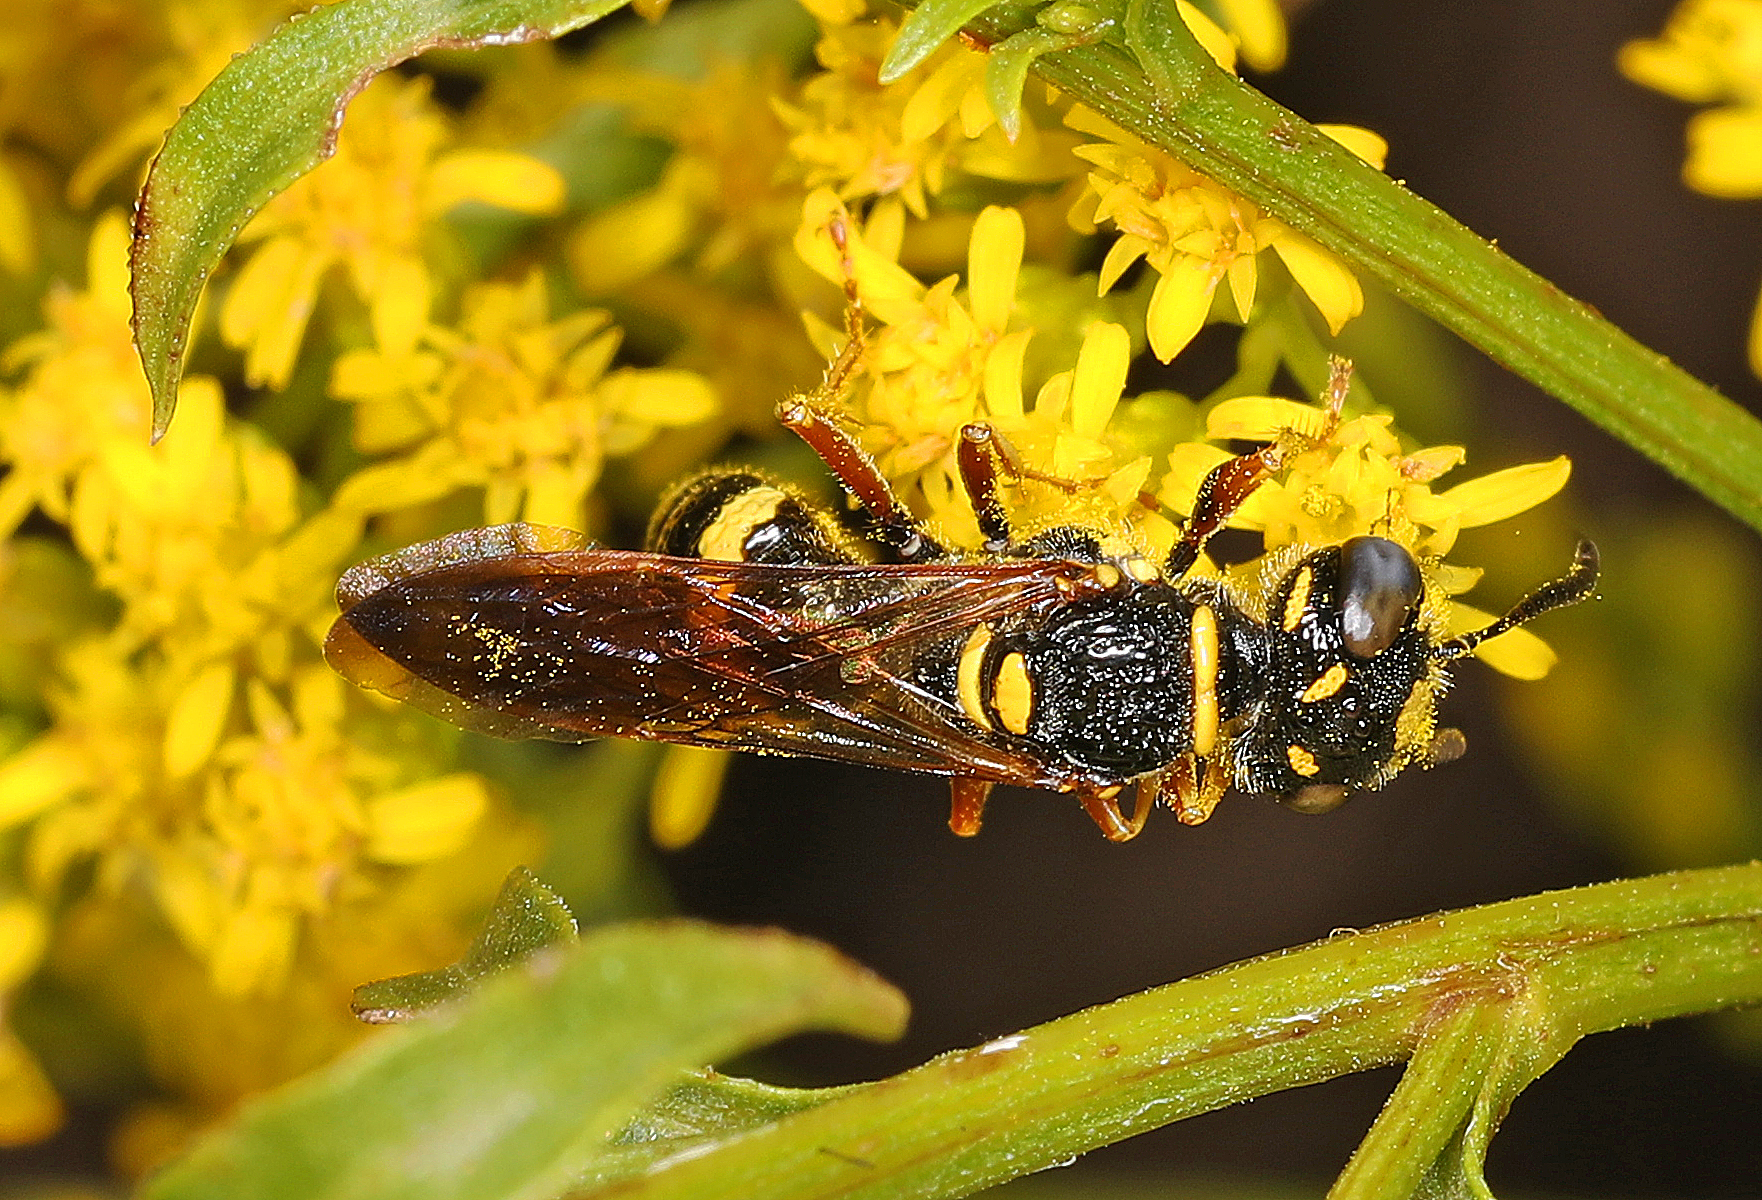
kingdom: Animalia
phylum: Arthropoda
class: Insecta
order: Hymenoptera
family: Crabronidae
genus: Philanthus
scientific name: Philanthus gibbosus
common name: Humped beewolf
